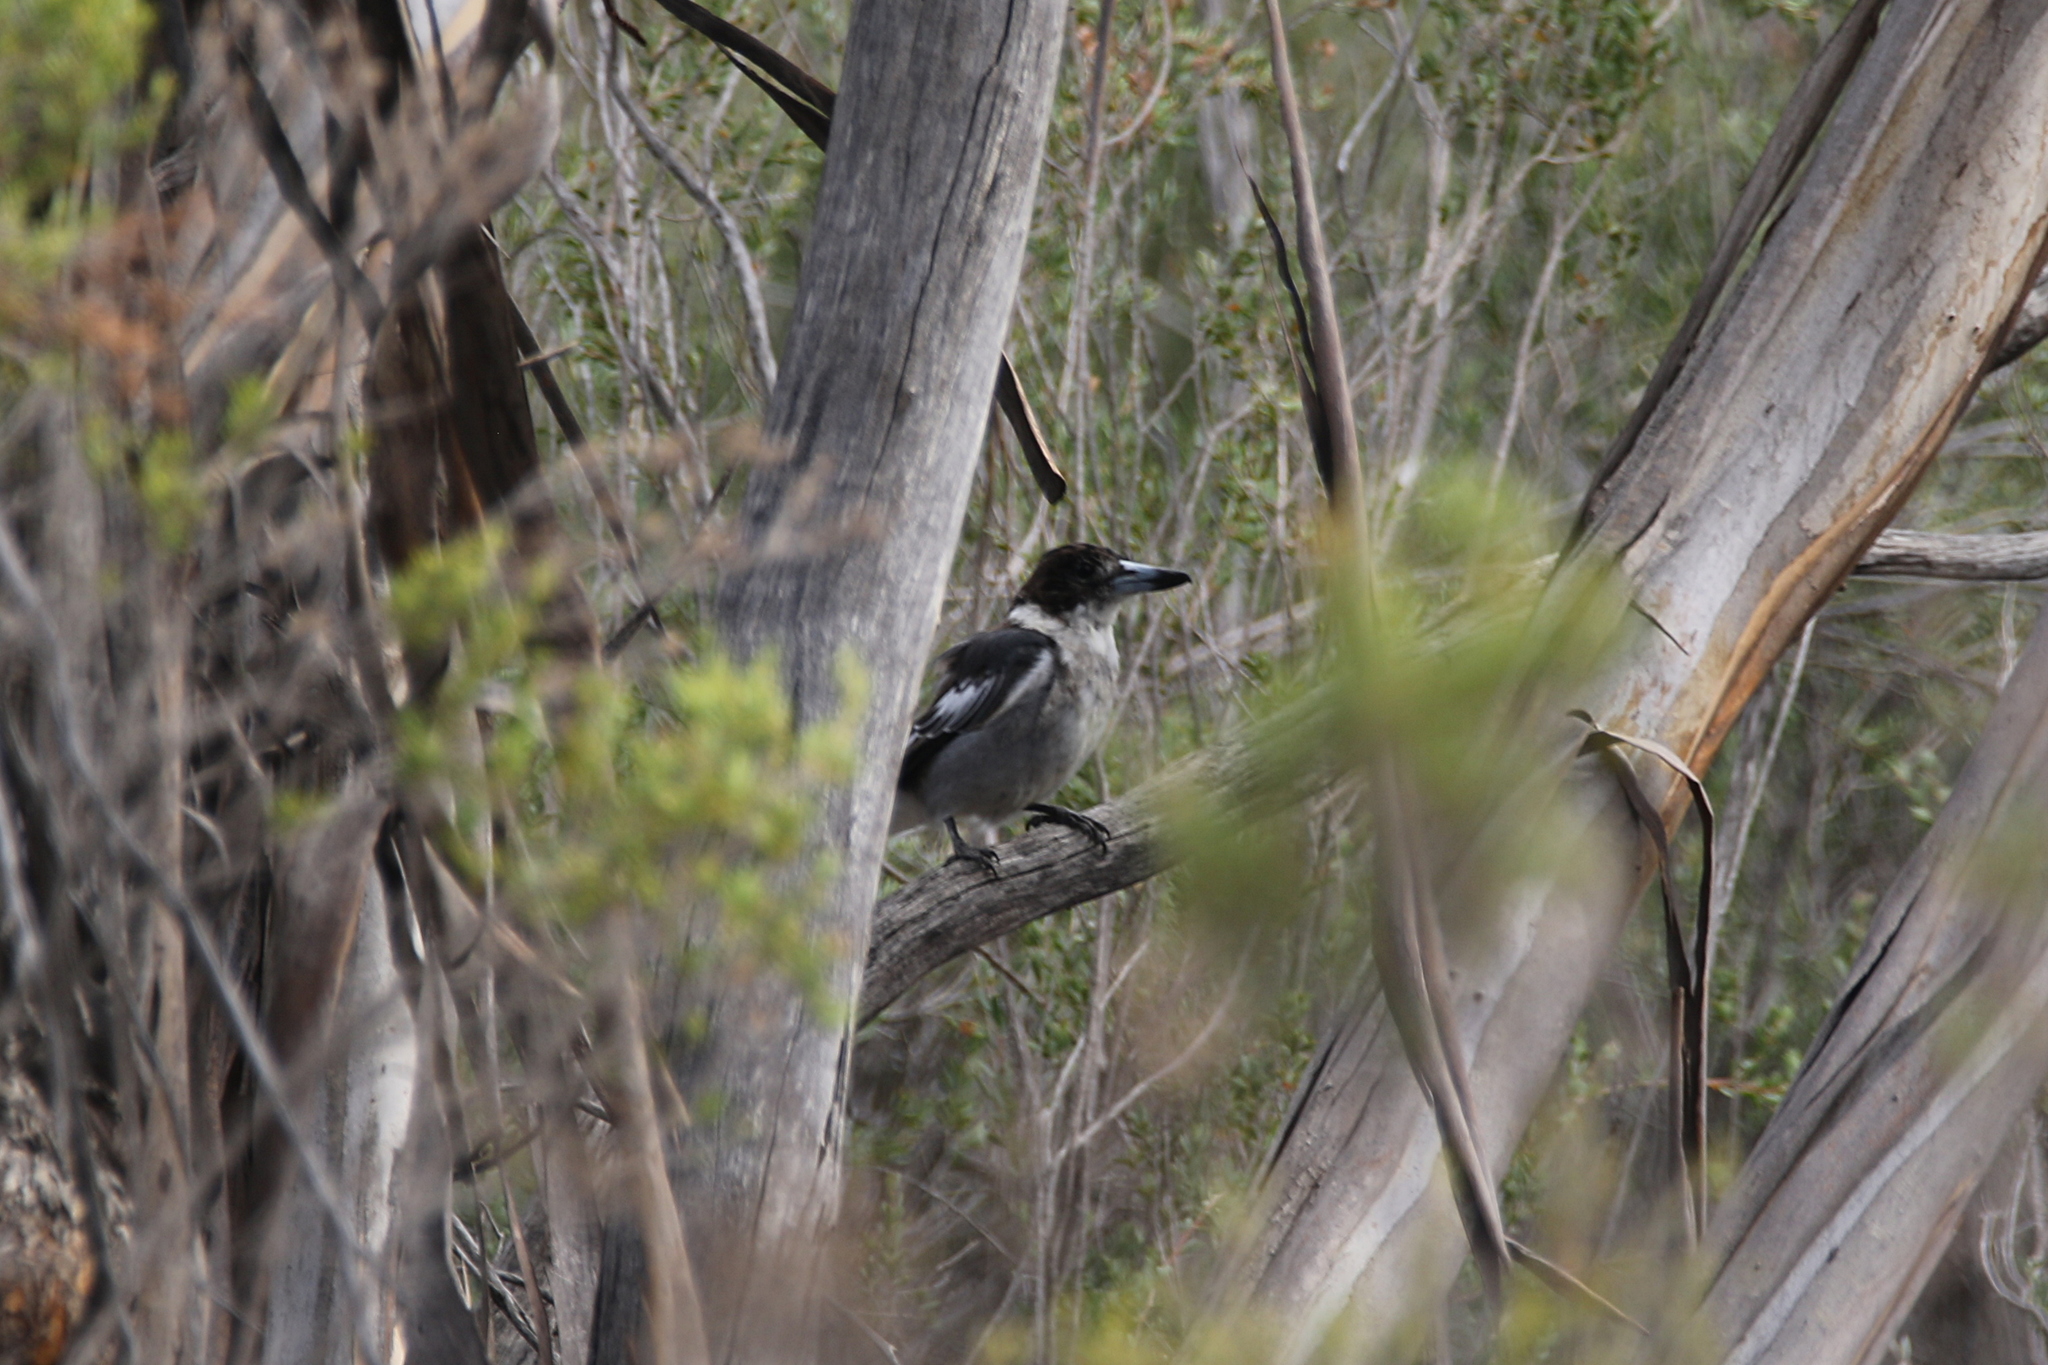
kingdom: Animalia
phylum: Chordata
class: Aves
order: Passeriformes
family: Cracticidae
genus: Cracticus
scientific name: Cracticus torquatus
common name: Grey butcherbird
